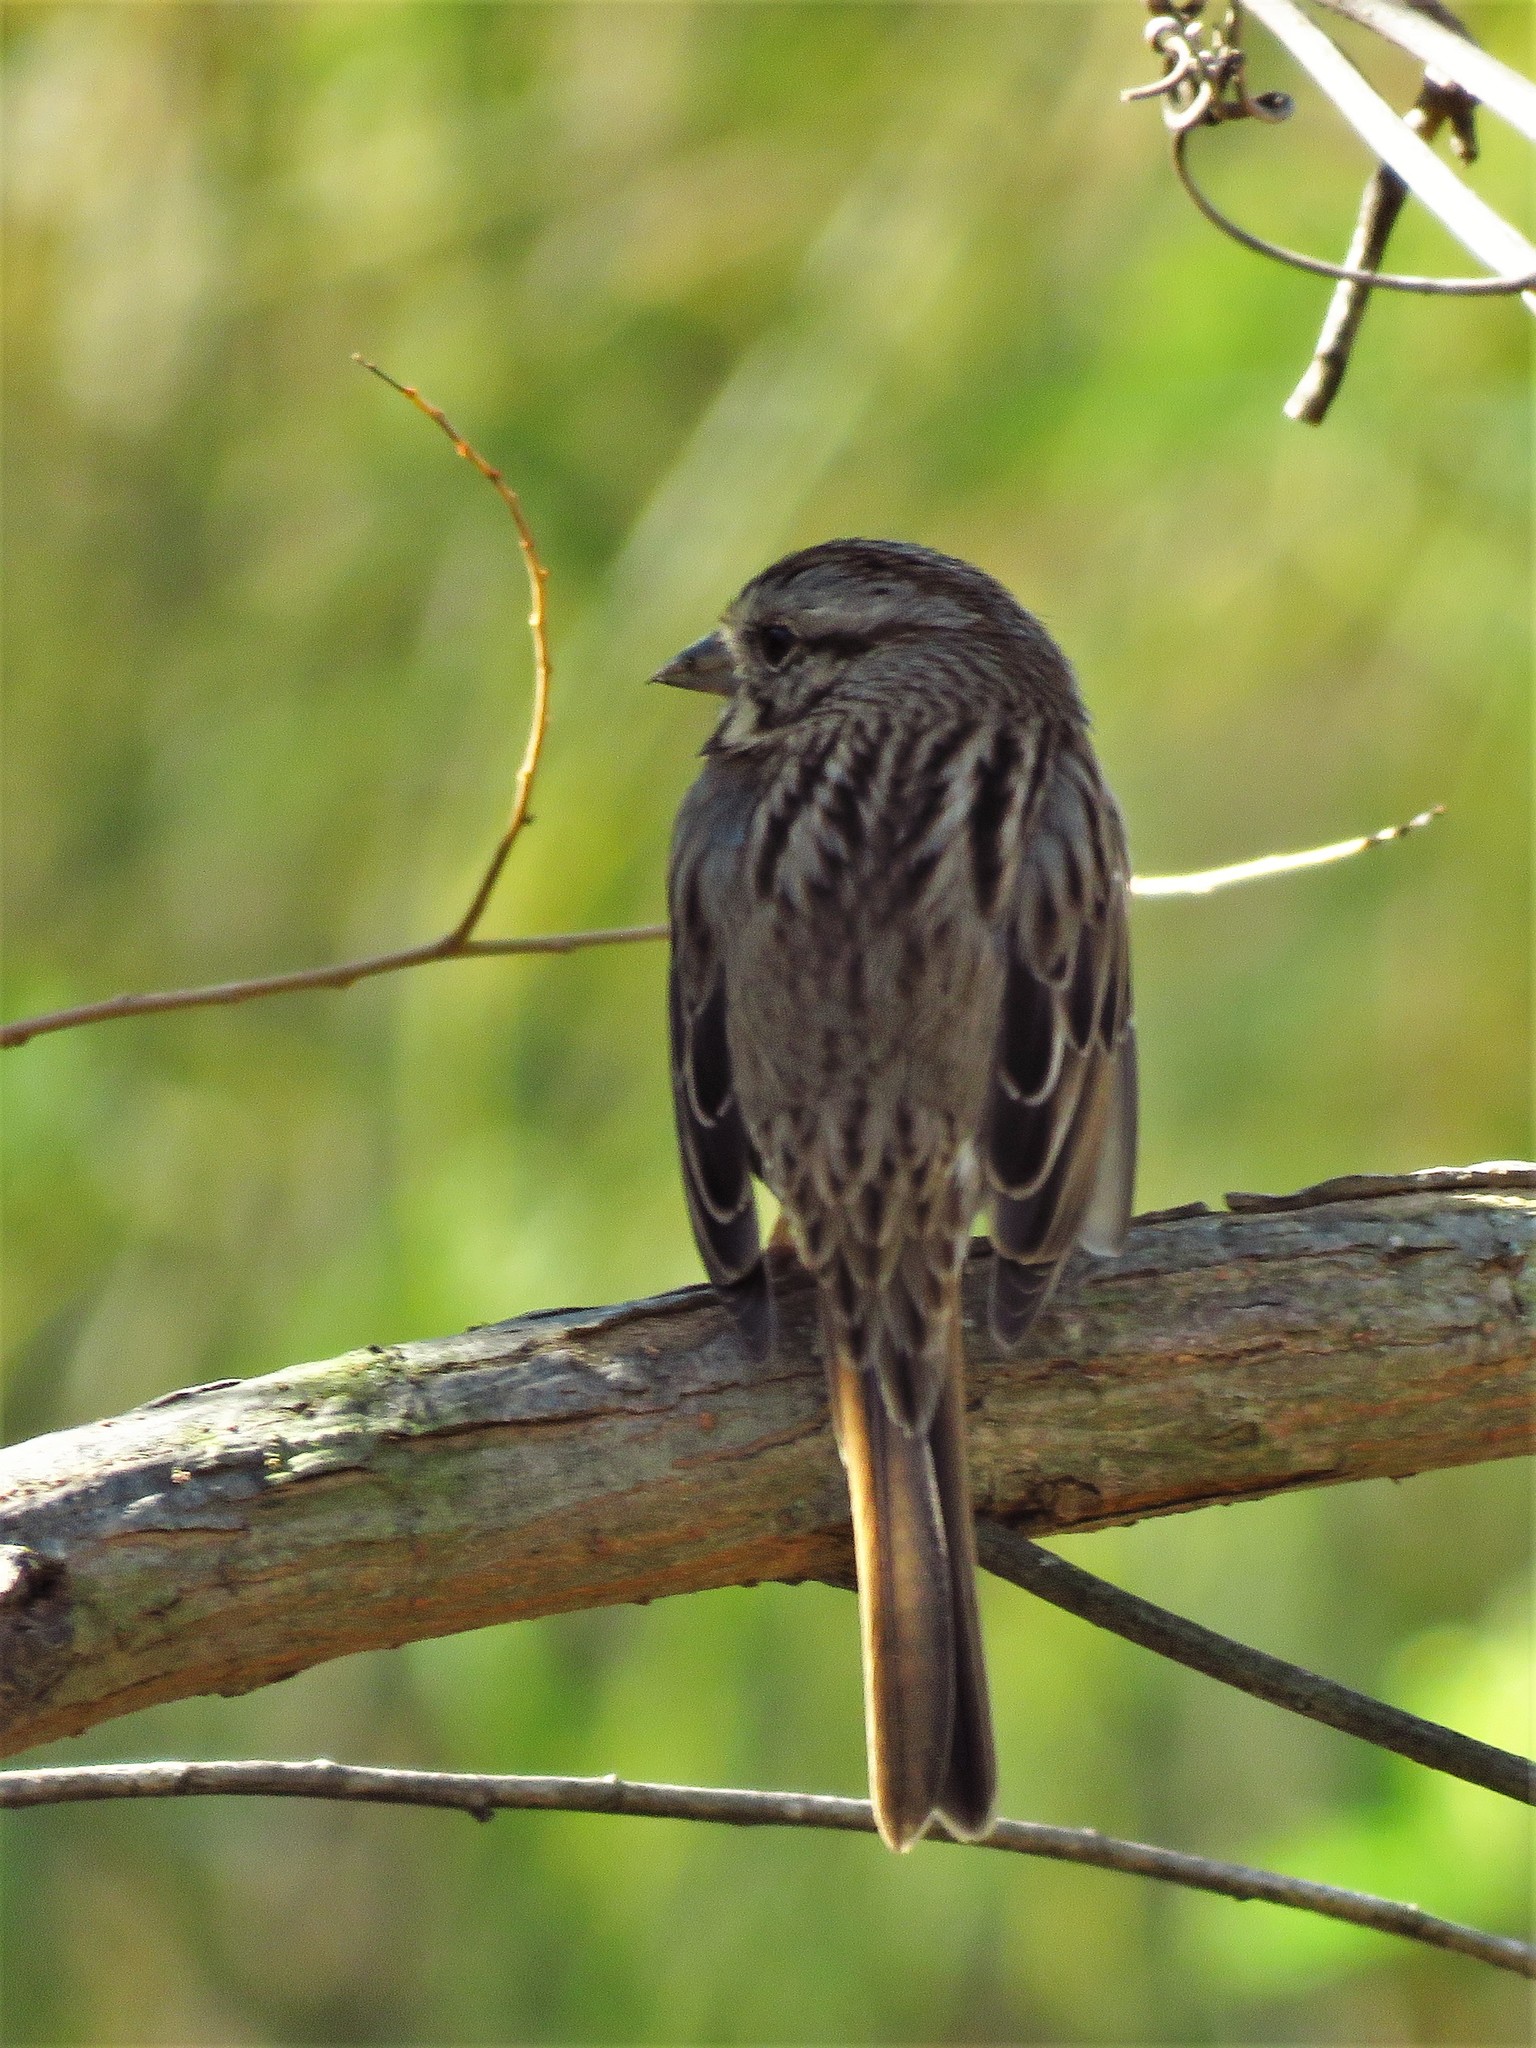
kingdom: Animalia
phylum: Chordata
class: Aves
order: Passeriformes
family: Passerellidae
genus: Melospiza
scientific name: Melospiza melodia
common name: Song sparrow
